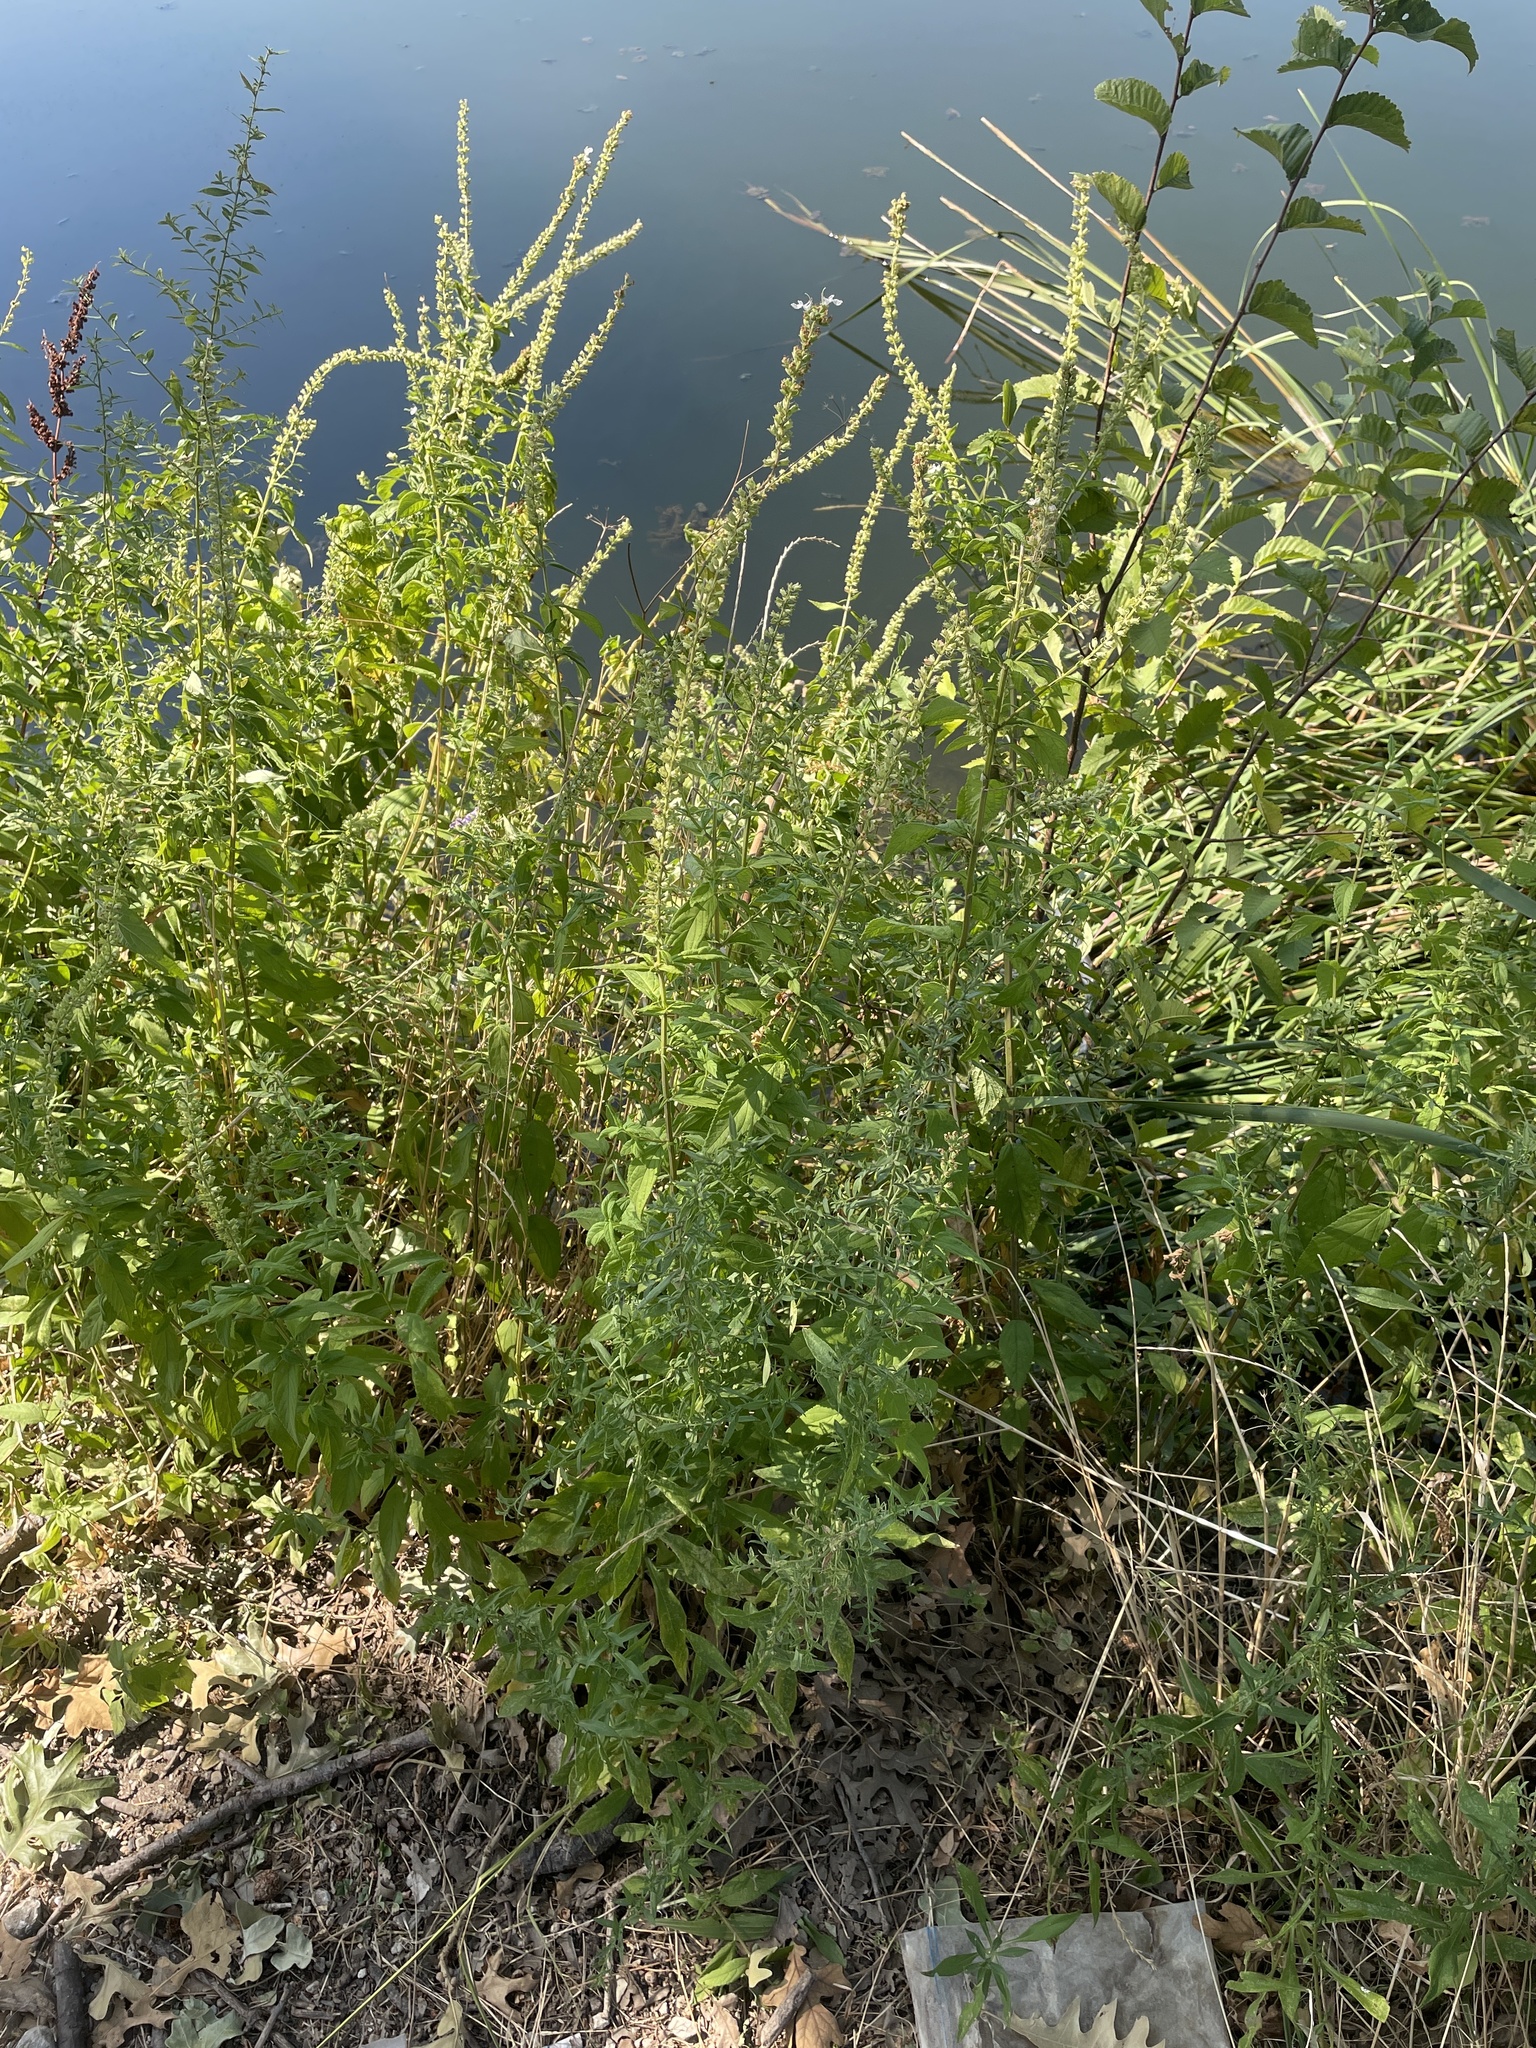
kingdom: Plantae
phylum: Tracheophyta
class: Magnoliopsida
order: Lamiales
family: Lamiaceae
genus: Teucrium
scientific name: Teucrium canadense
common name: American germander
